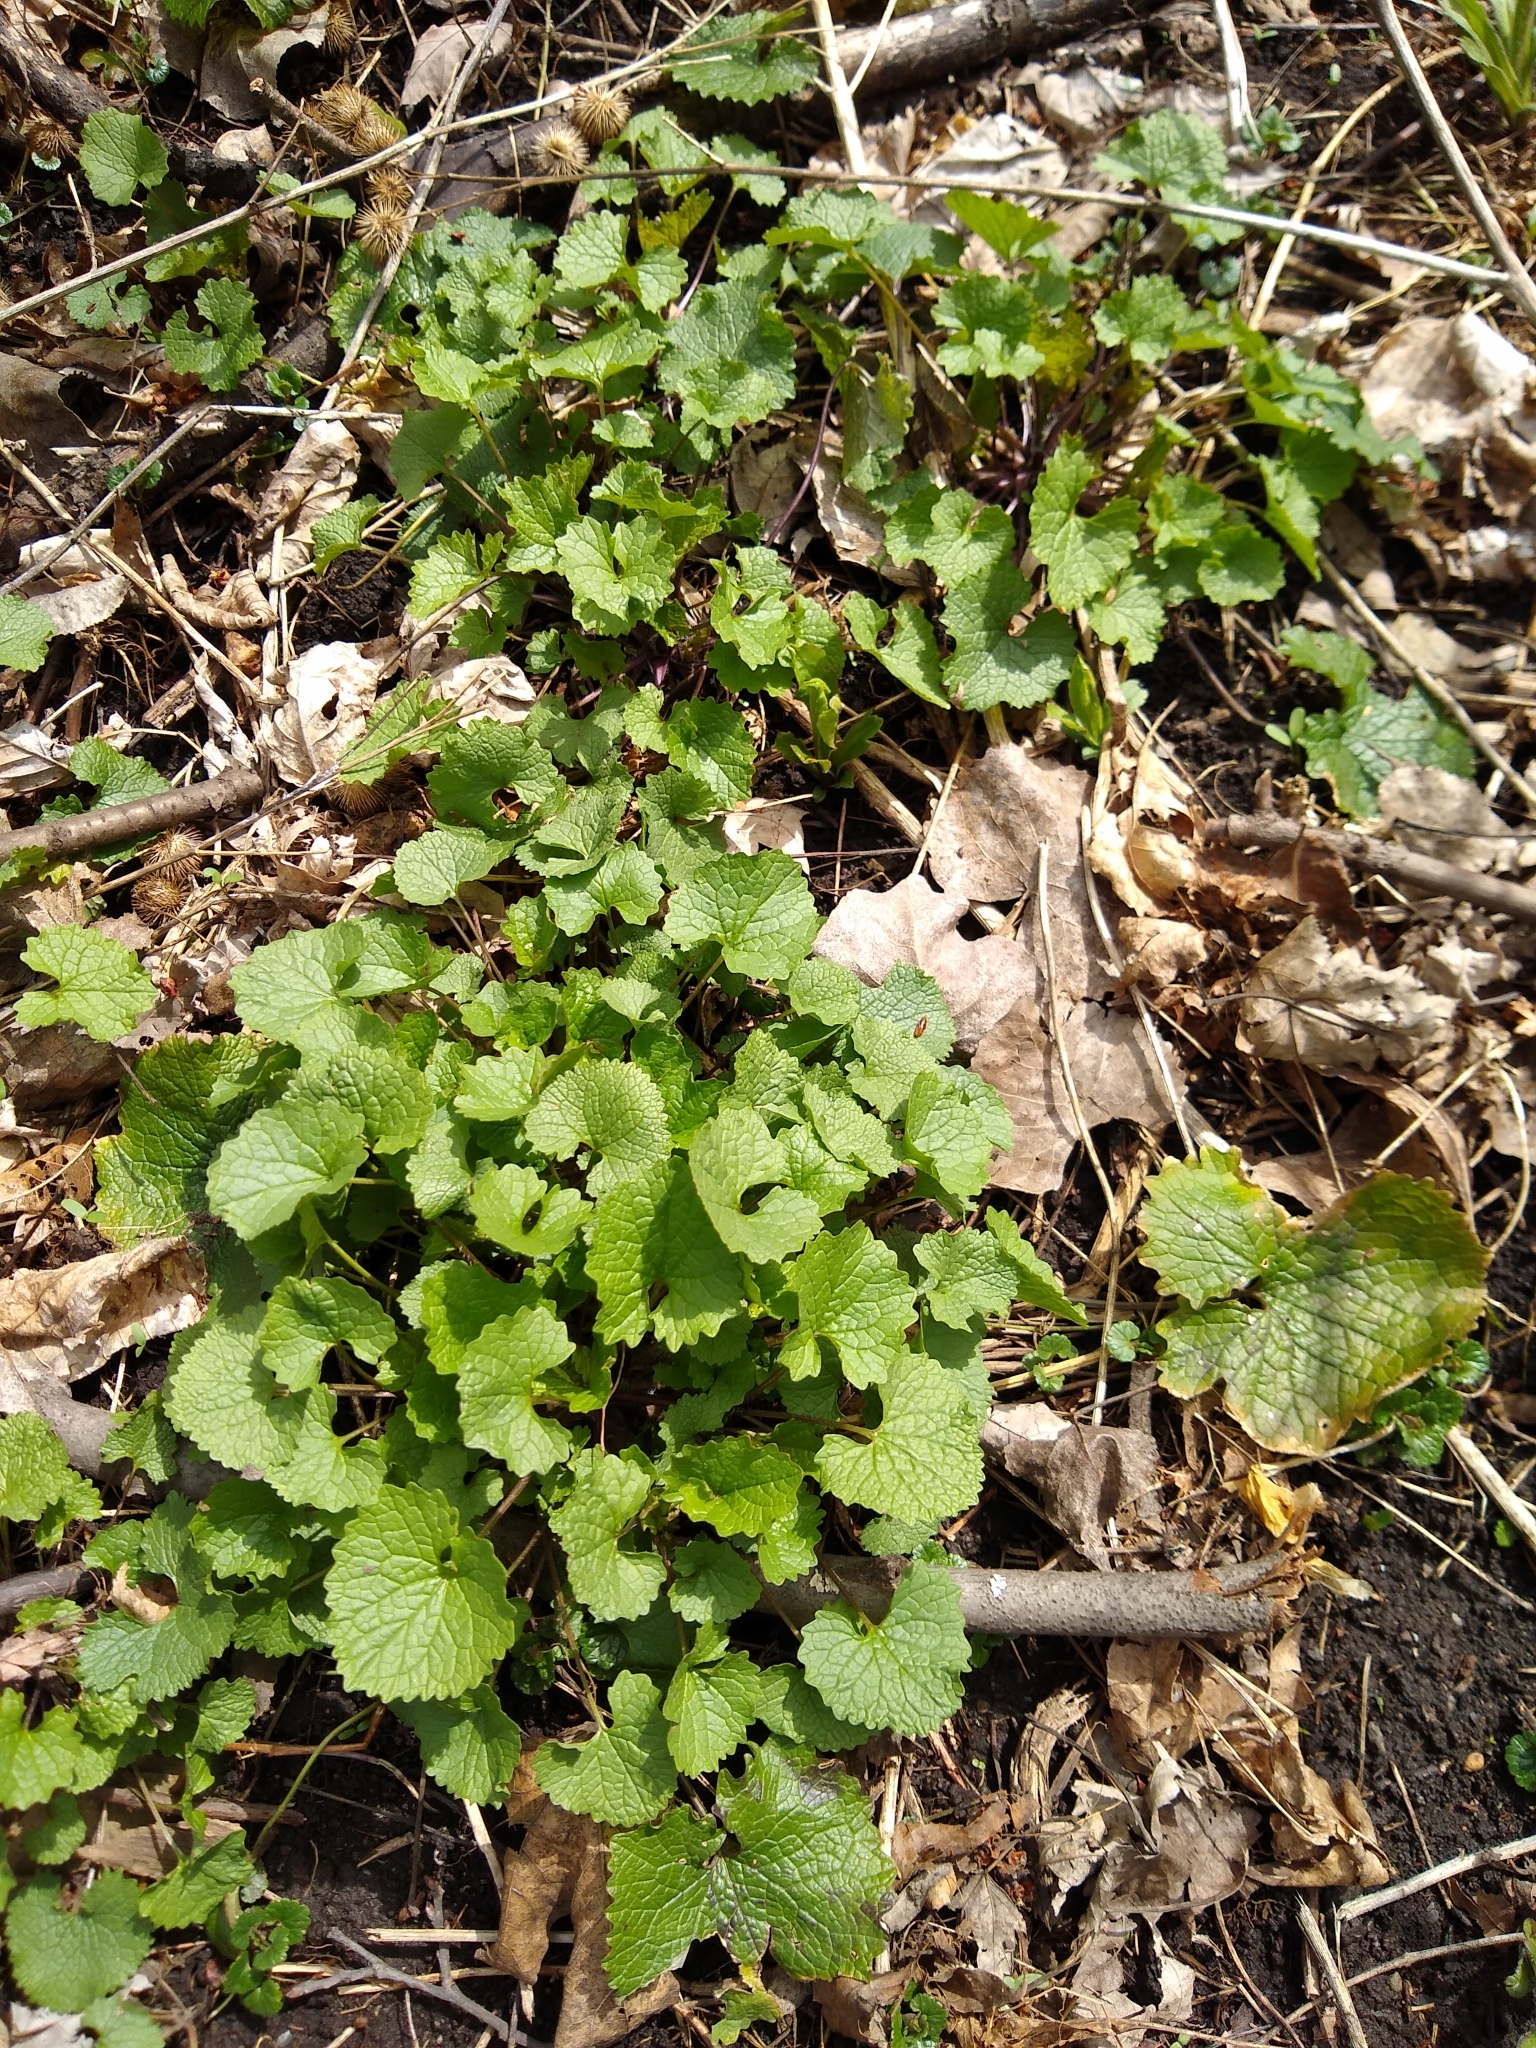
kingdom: Plantae
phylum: Tracheophyta
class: Magnoliopsida
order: Brassicales
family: Brassicaceae
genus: Alliaria
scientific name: Alliaria petiolata
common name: Garlic mustard
